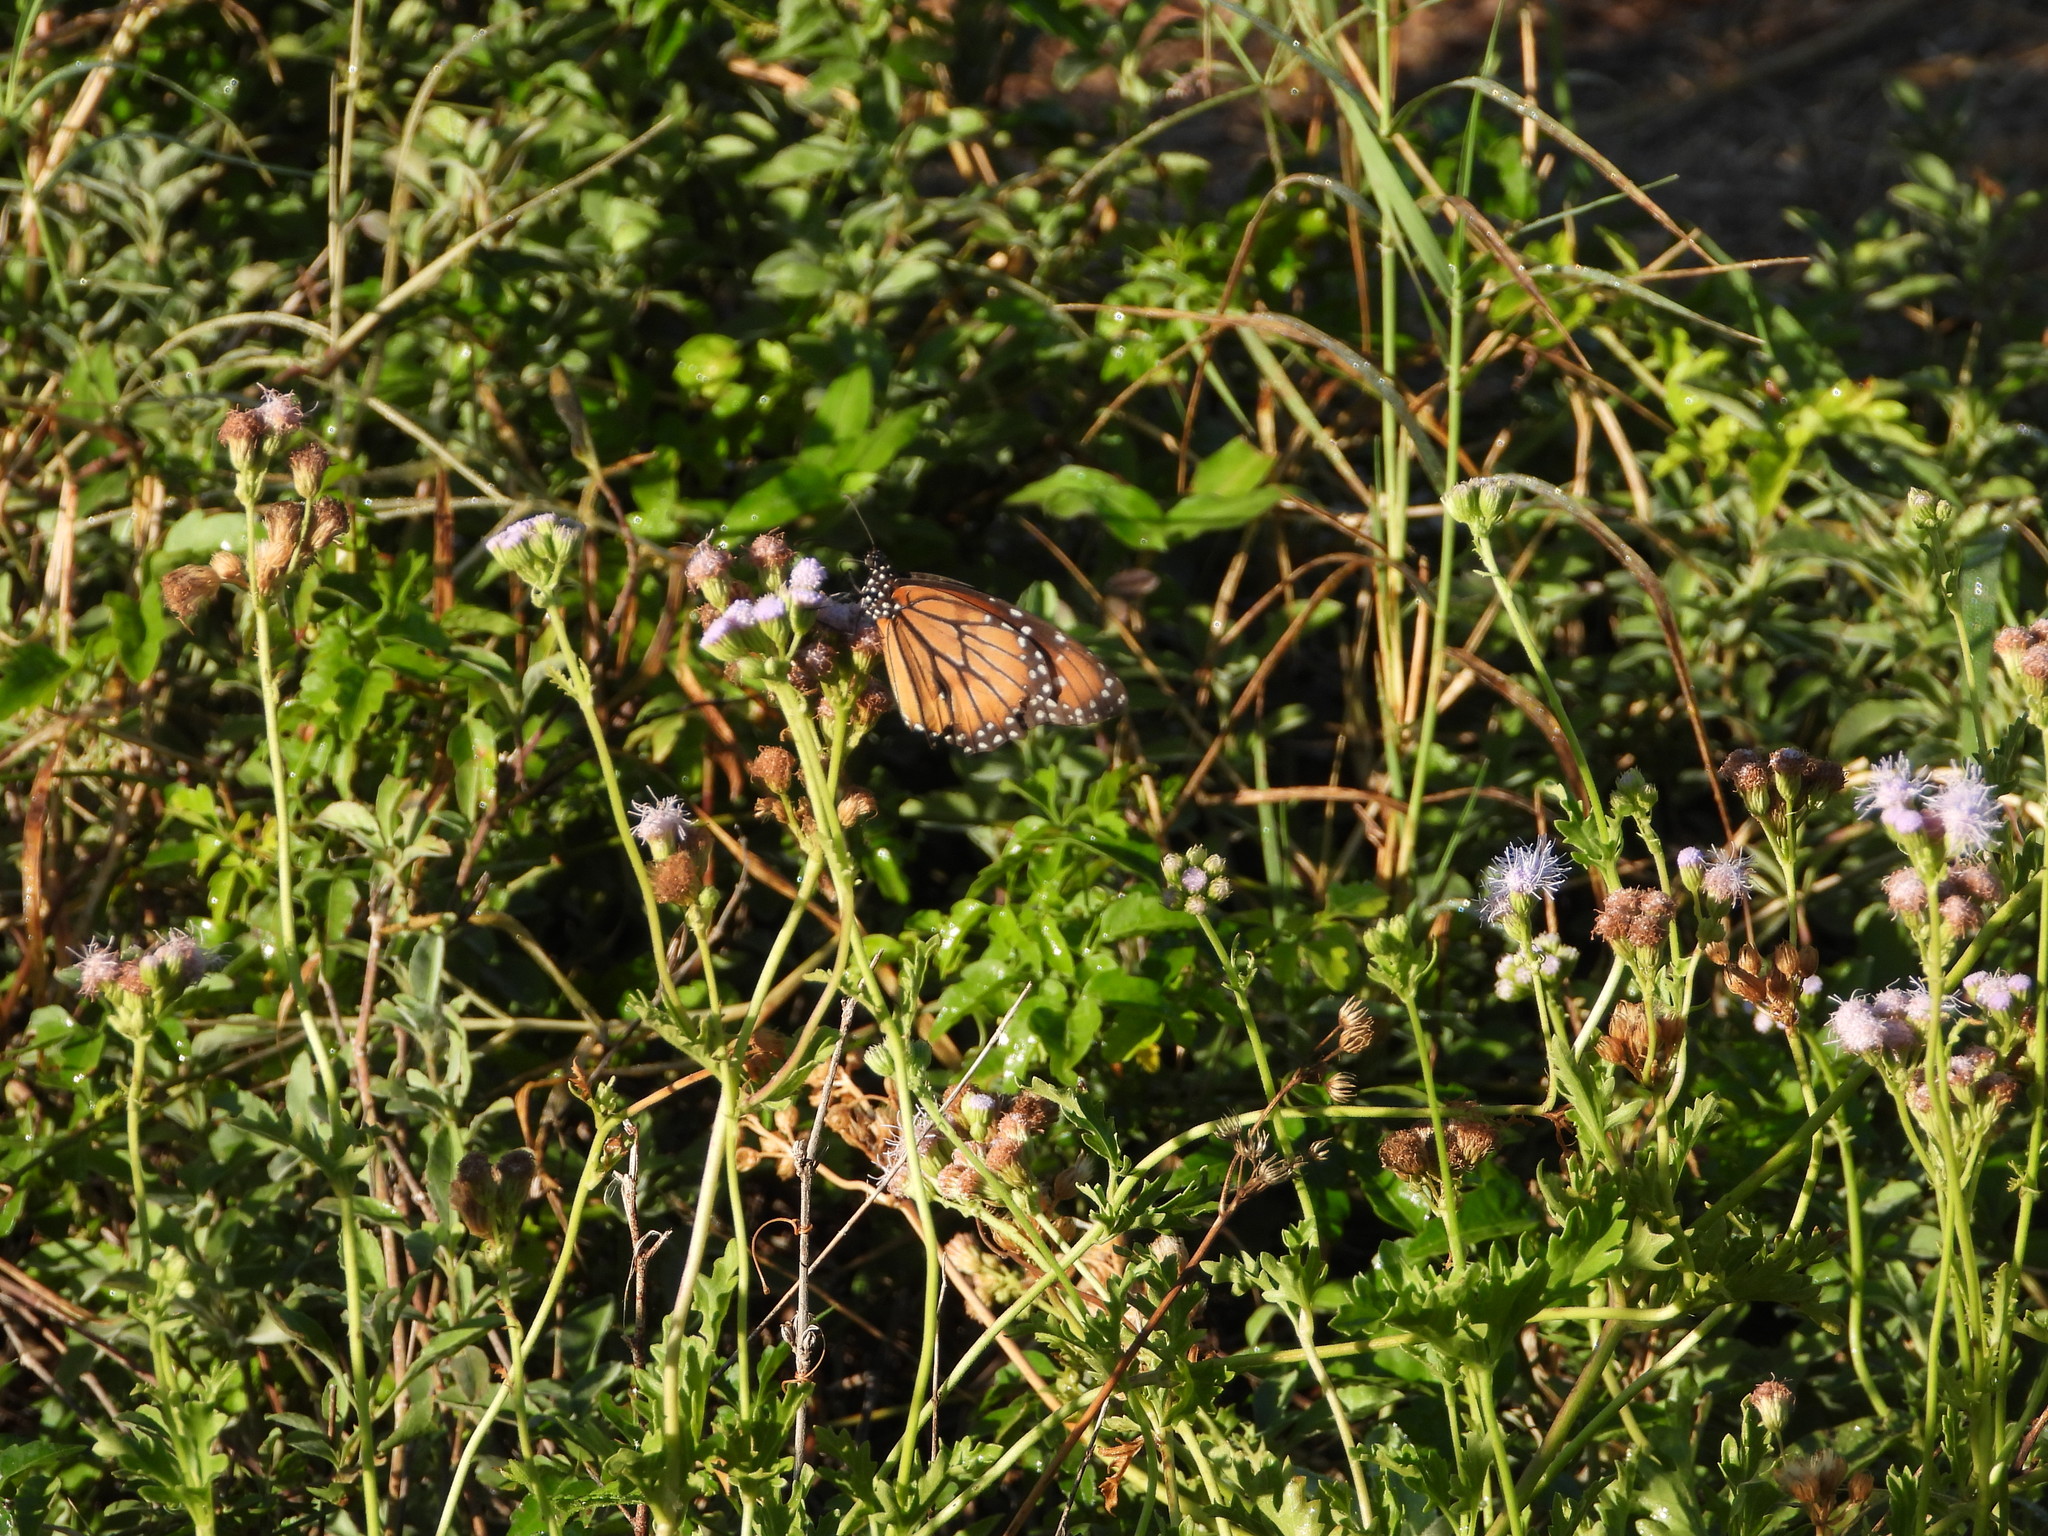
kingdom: Animalia
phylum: Arthropoda
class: Insecta
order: Lepidoptera
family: Nymphalidae
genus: Danaus
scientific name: Danaus eresimus
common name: Soldier
